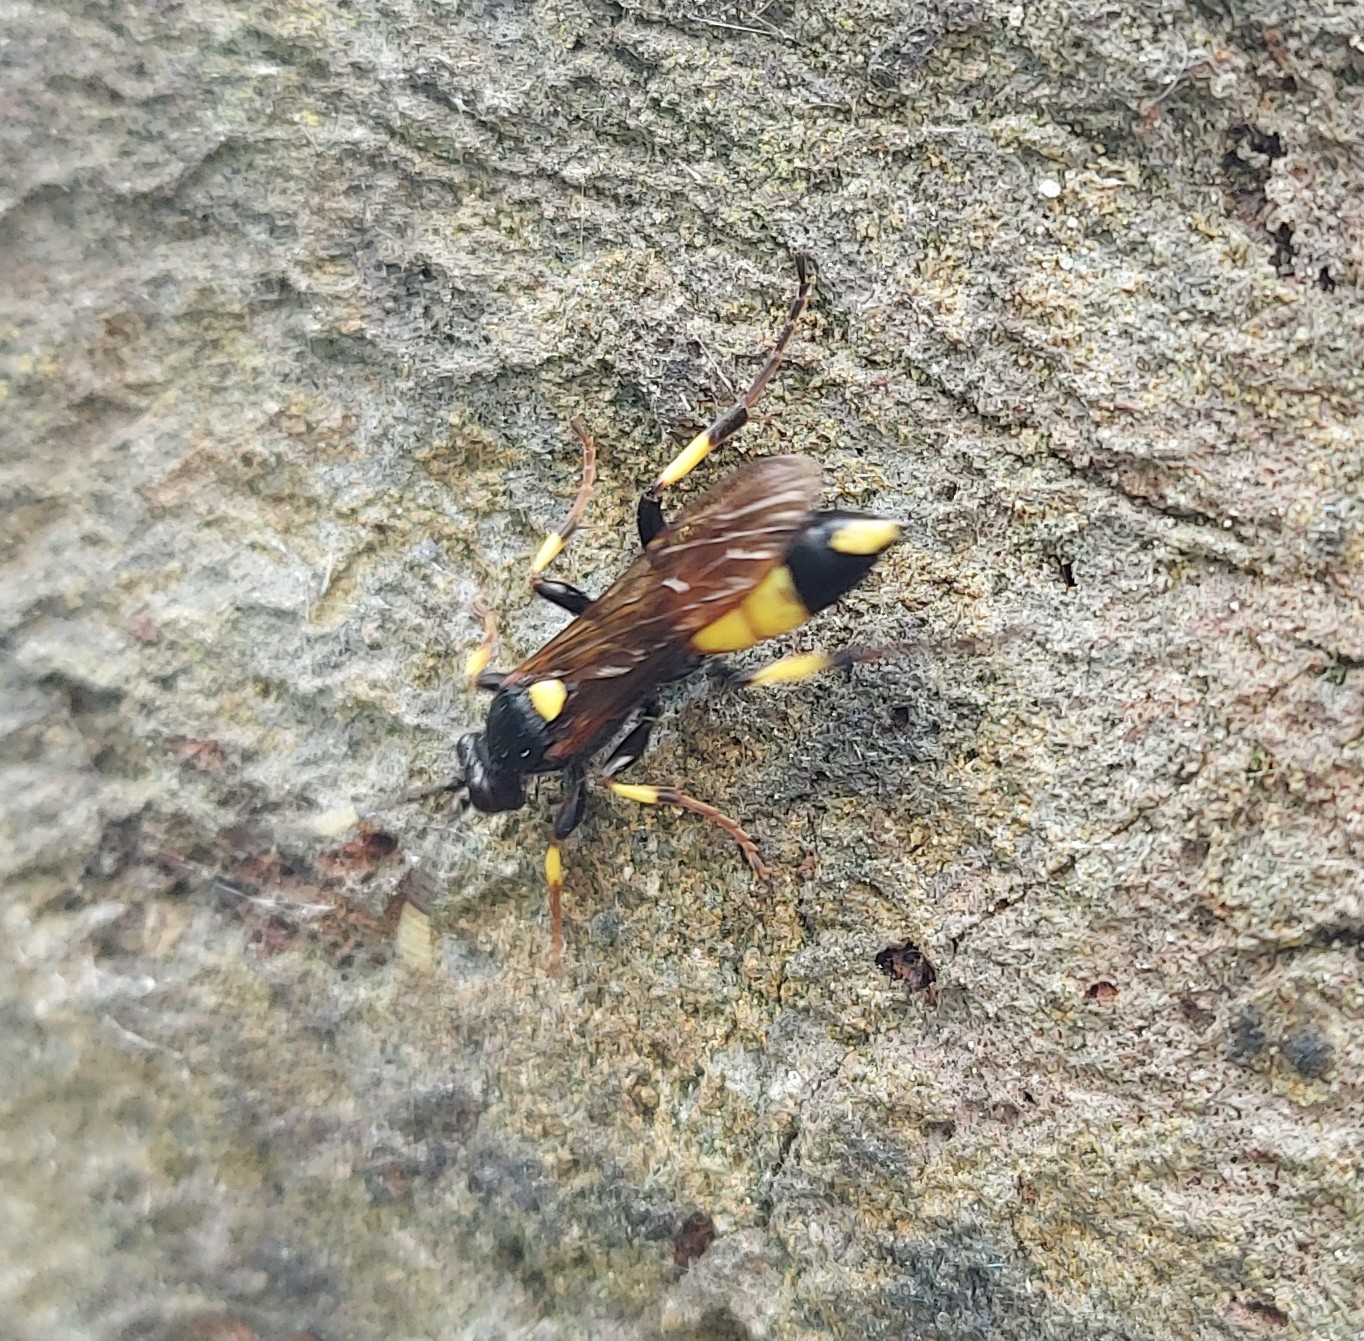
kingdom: Animalia
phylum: Arthropoda
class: Insecta
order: Hymenoptera
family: Ichneumonidae
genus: Ichneumon
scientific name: Ichneumon stramentor
